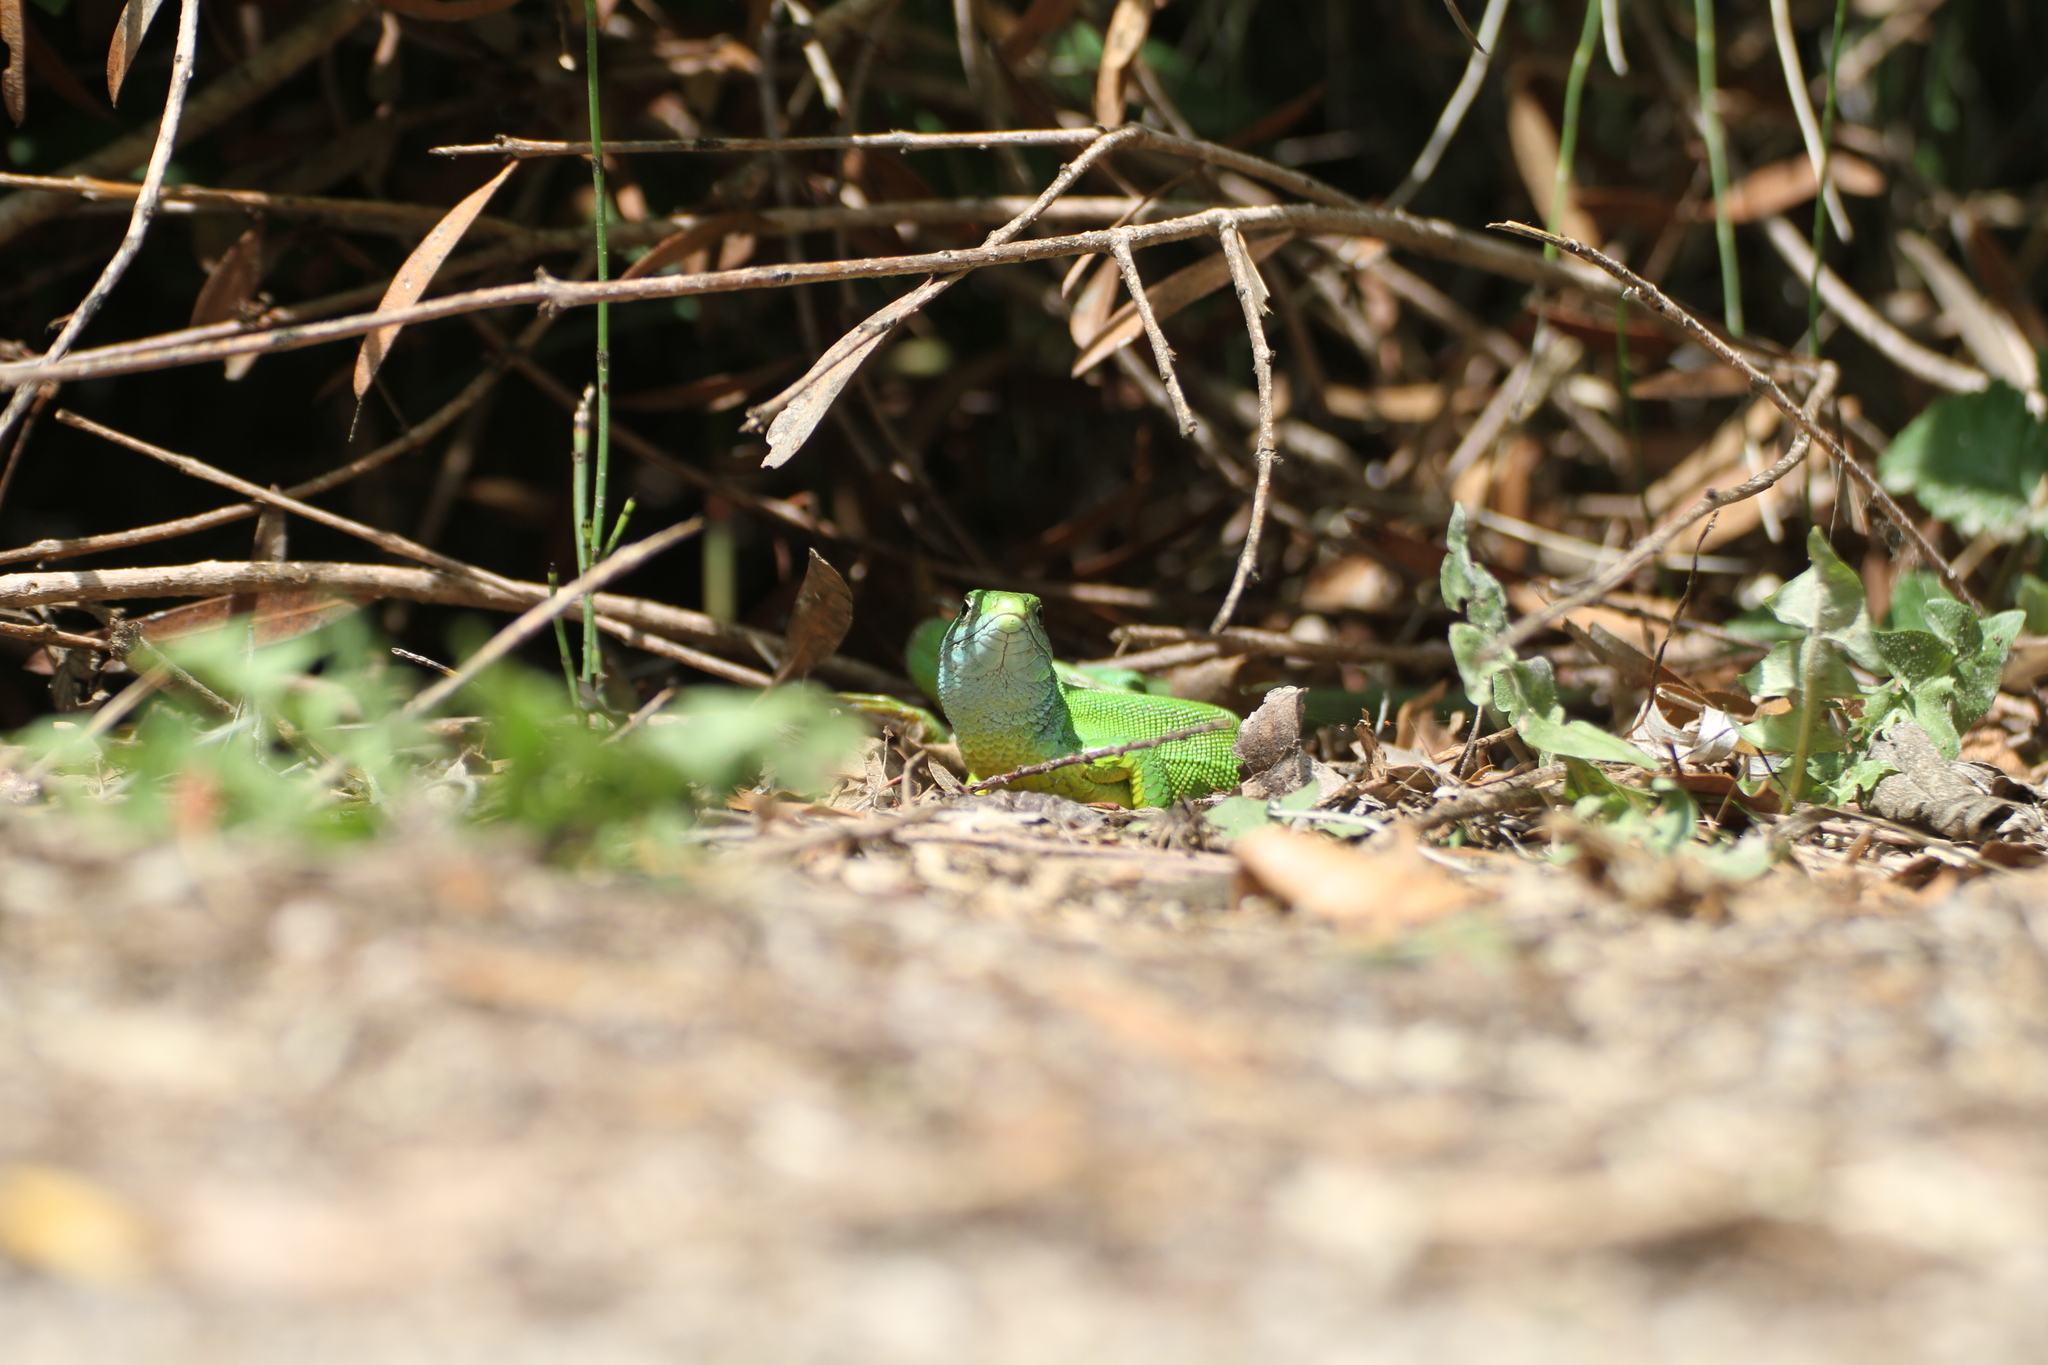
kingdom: Animalia
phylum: Chordata
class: Squamata
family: Lacertidae
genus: Lacerta
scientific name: Lacerta bilineata
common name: Western green lizard
